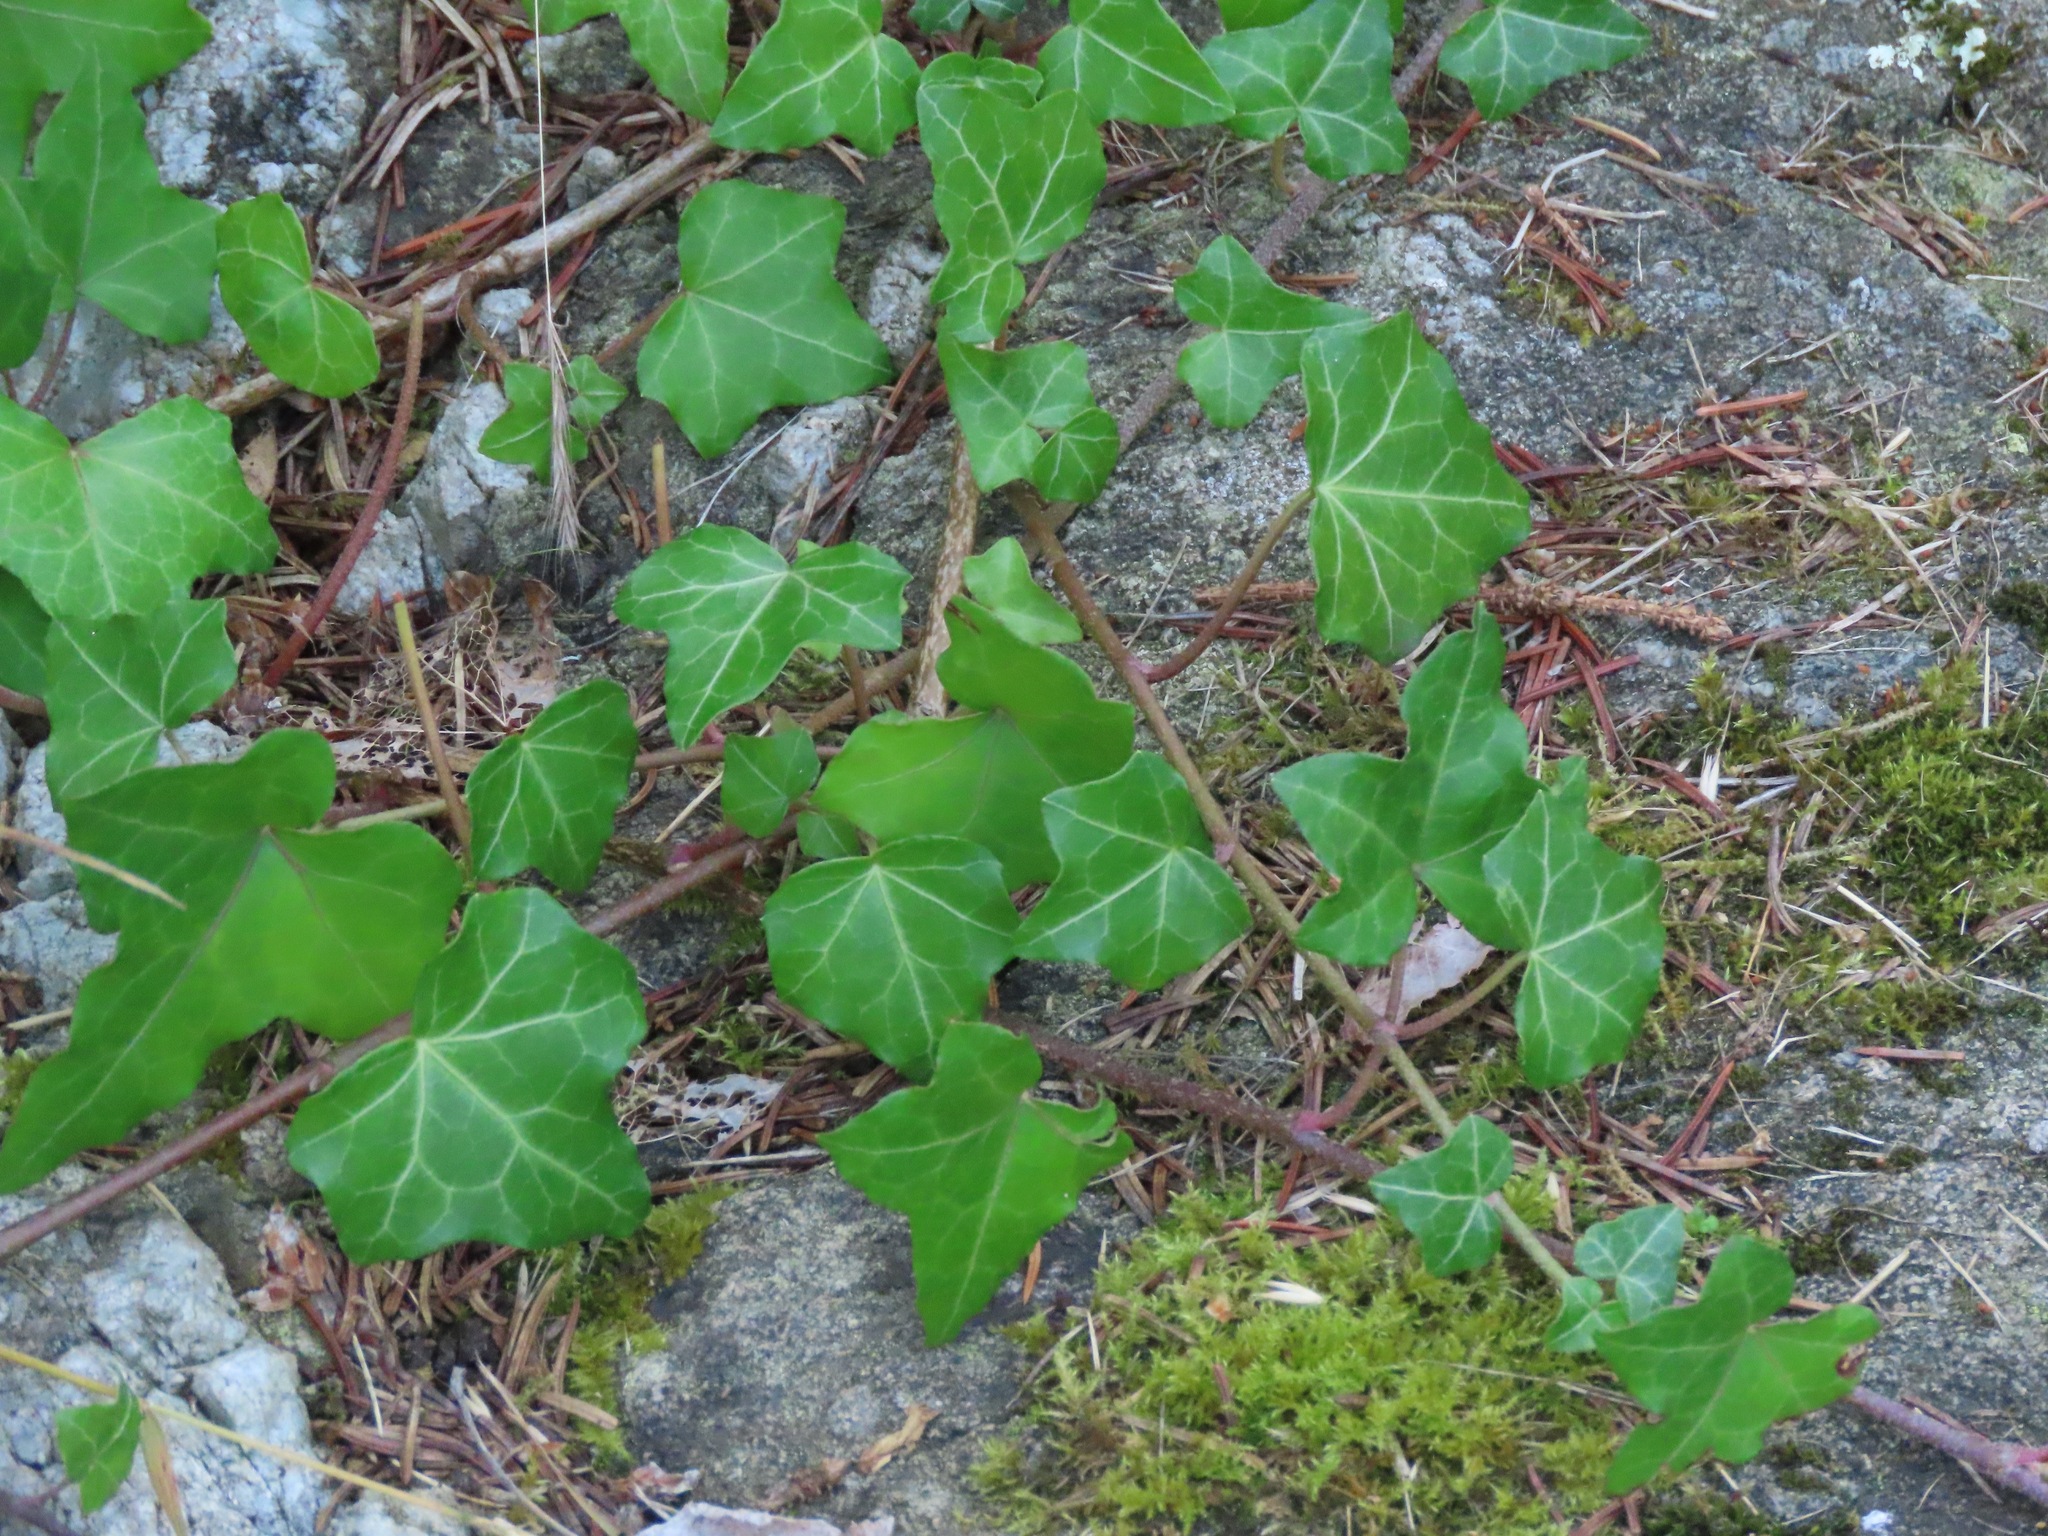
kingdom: Plantae
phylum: Tracheophyta
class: Magnoliopsida
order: Apiales
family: Araliaceae
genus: Hedera
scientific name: Hedera helix
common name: Ivy
